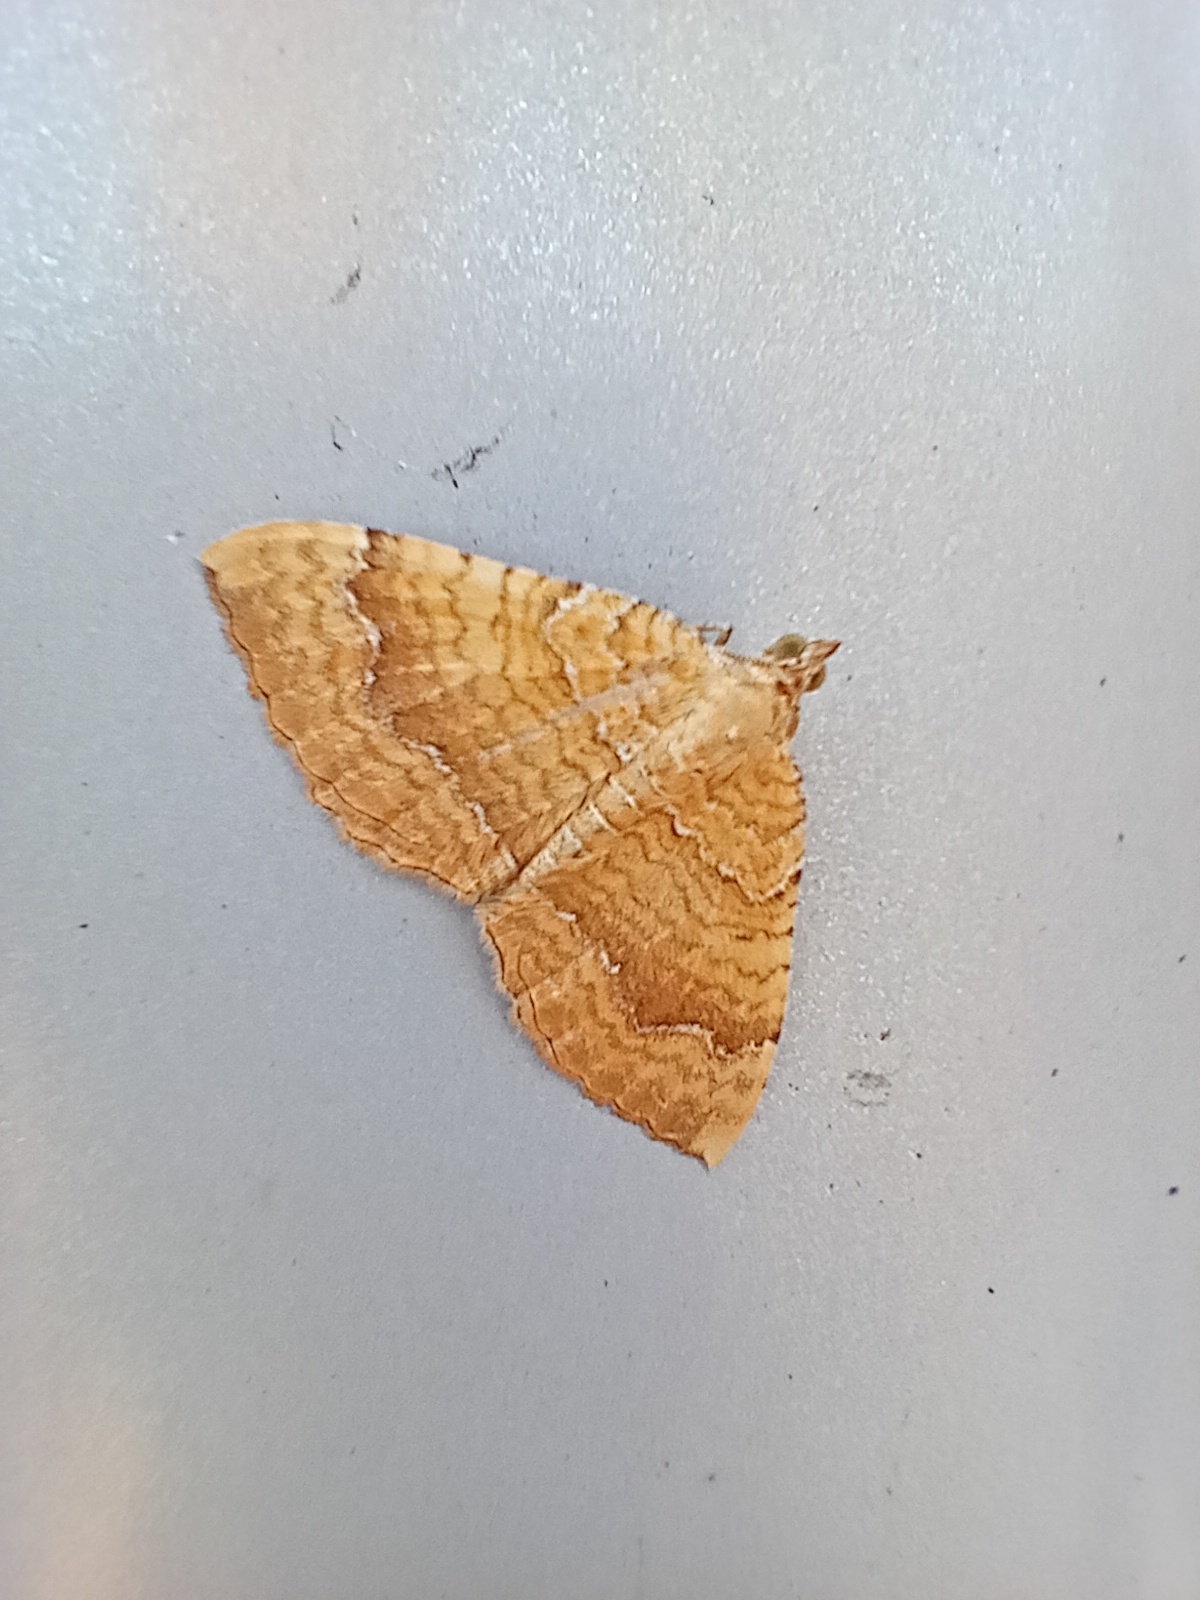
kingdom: Animalia
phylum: Arthropoda
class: Insecta
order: Lepidoptera
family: Geometridae
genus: Camptogramma
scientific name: Camptogramma bilineata
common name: Yellow shell
